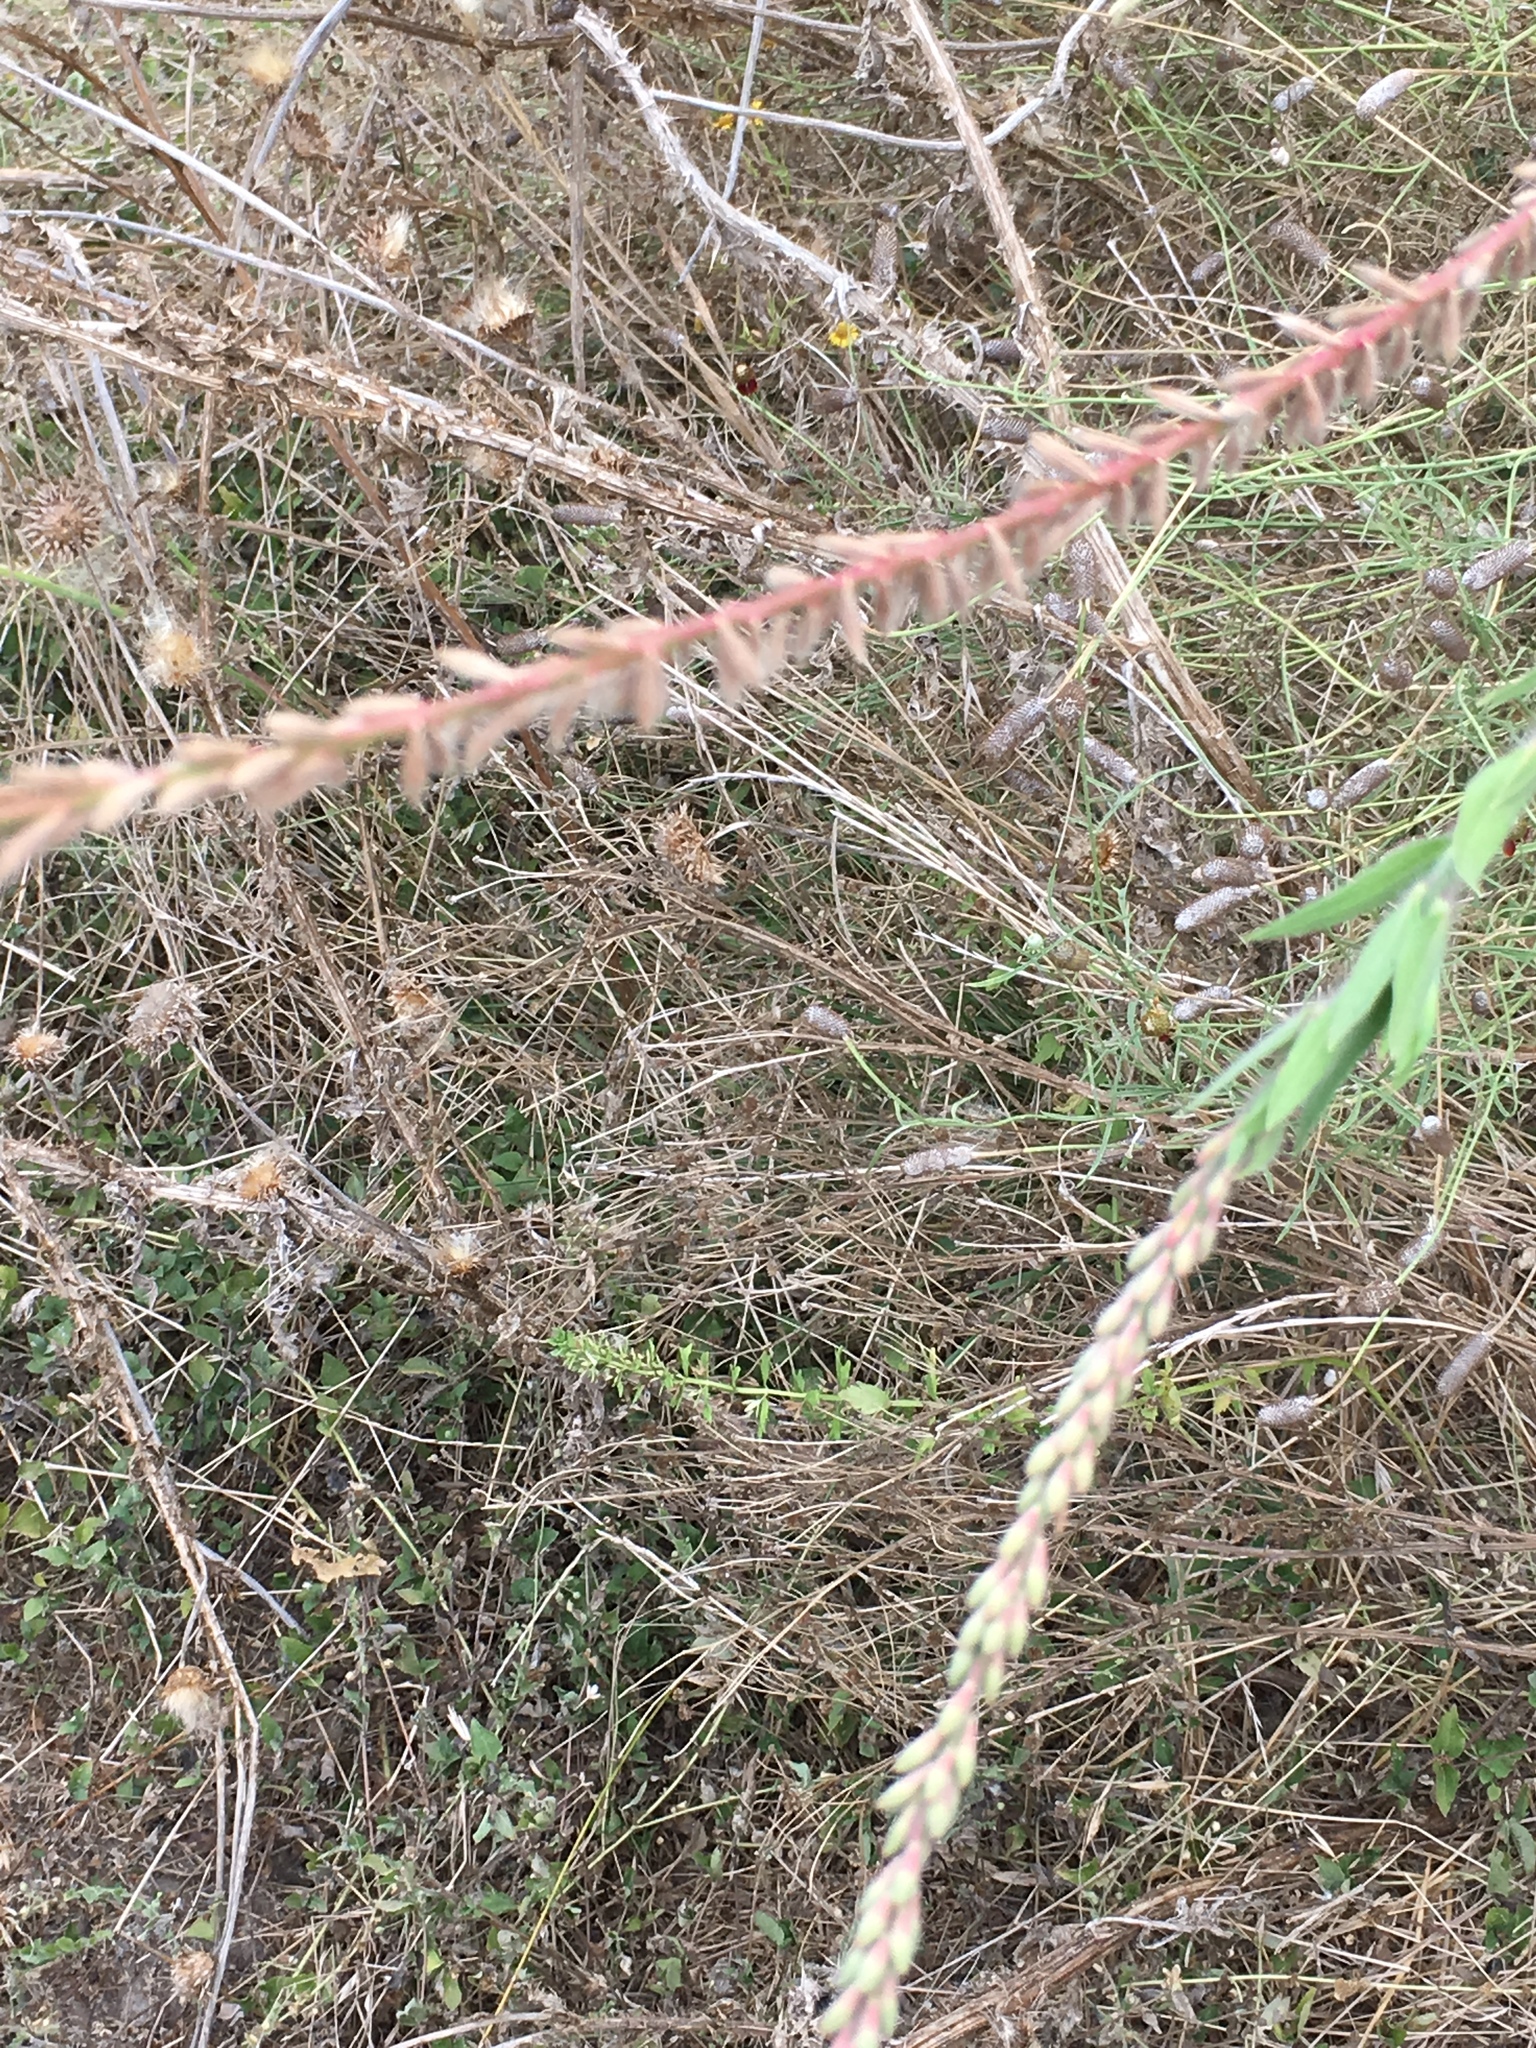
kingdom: Plantae
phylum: Tracheophyta
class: Magnoliopsida
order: Myrtales
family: Onagraceae
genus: Oenothera
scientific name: Oenothera curtiflora
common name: Velvetweed
